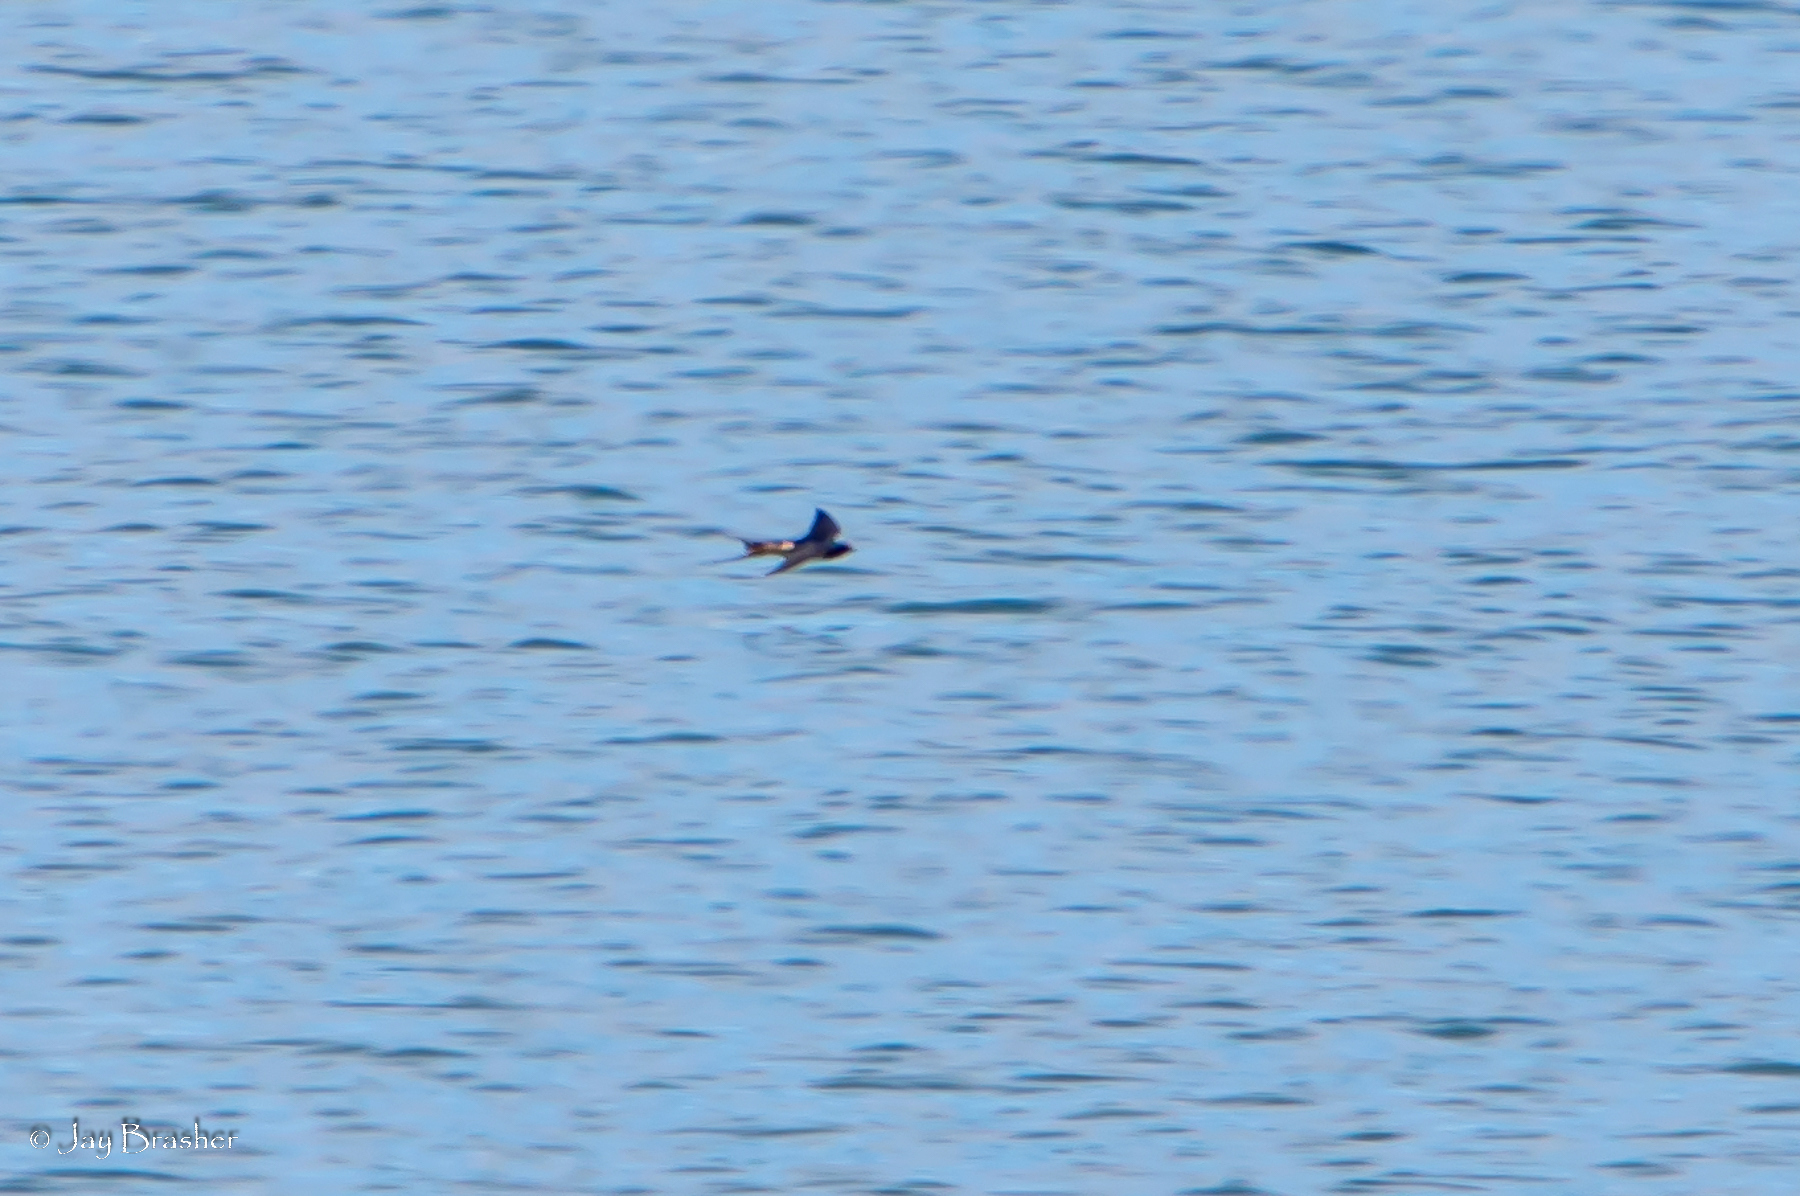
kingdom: Animalia
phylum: Chordata
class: Aves
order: Passeriformes
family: Hirundinidae
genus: Hirundo
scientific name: Hirundo rustica
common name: Barn swallow
